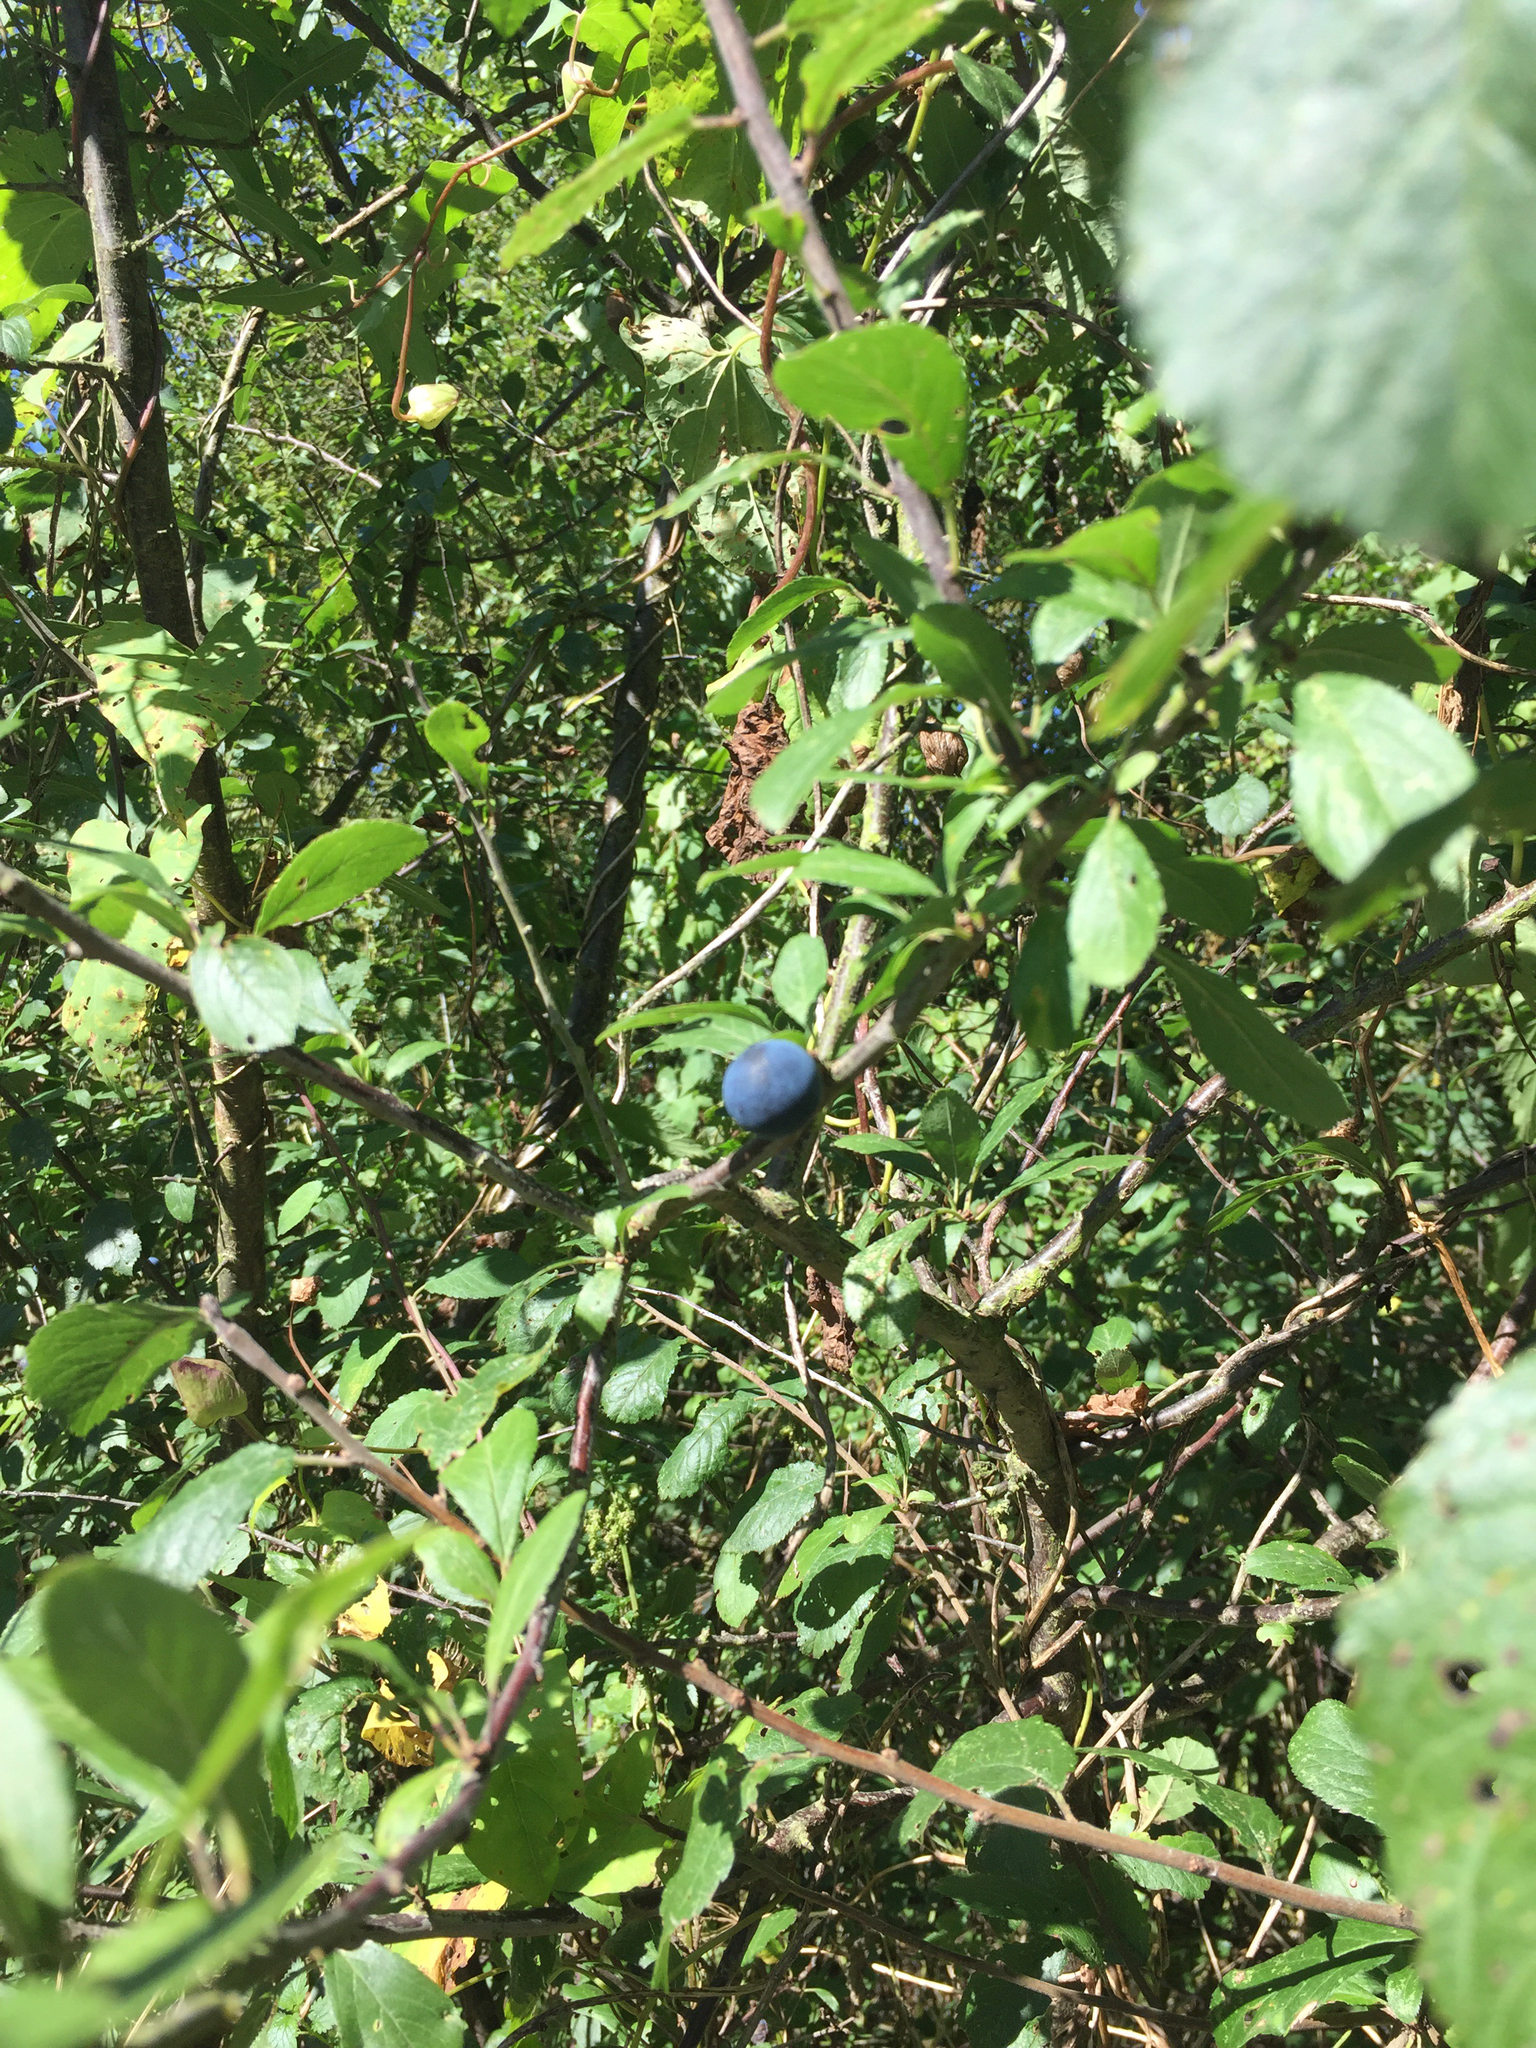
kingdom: Plantae
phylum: Tracheophyta
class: Magnoliopsida
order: Rosales
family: Rosaceae
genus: Prunus
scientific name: Prunus spinosa
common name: Blackthorn
